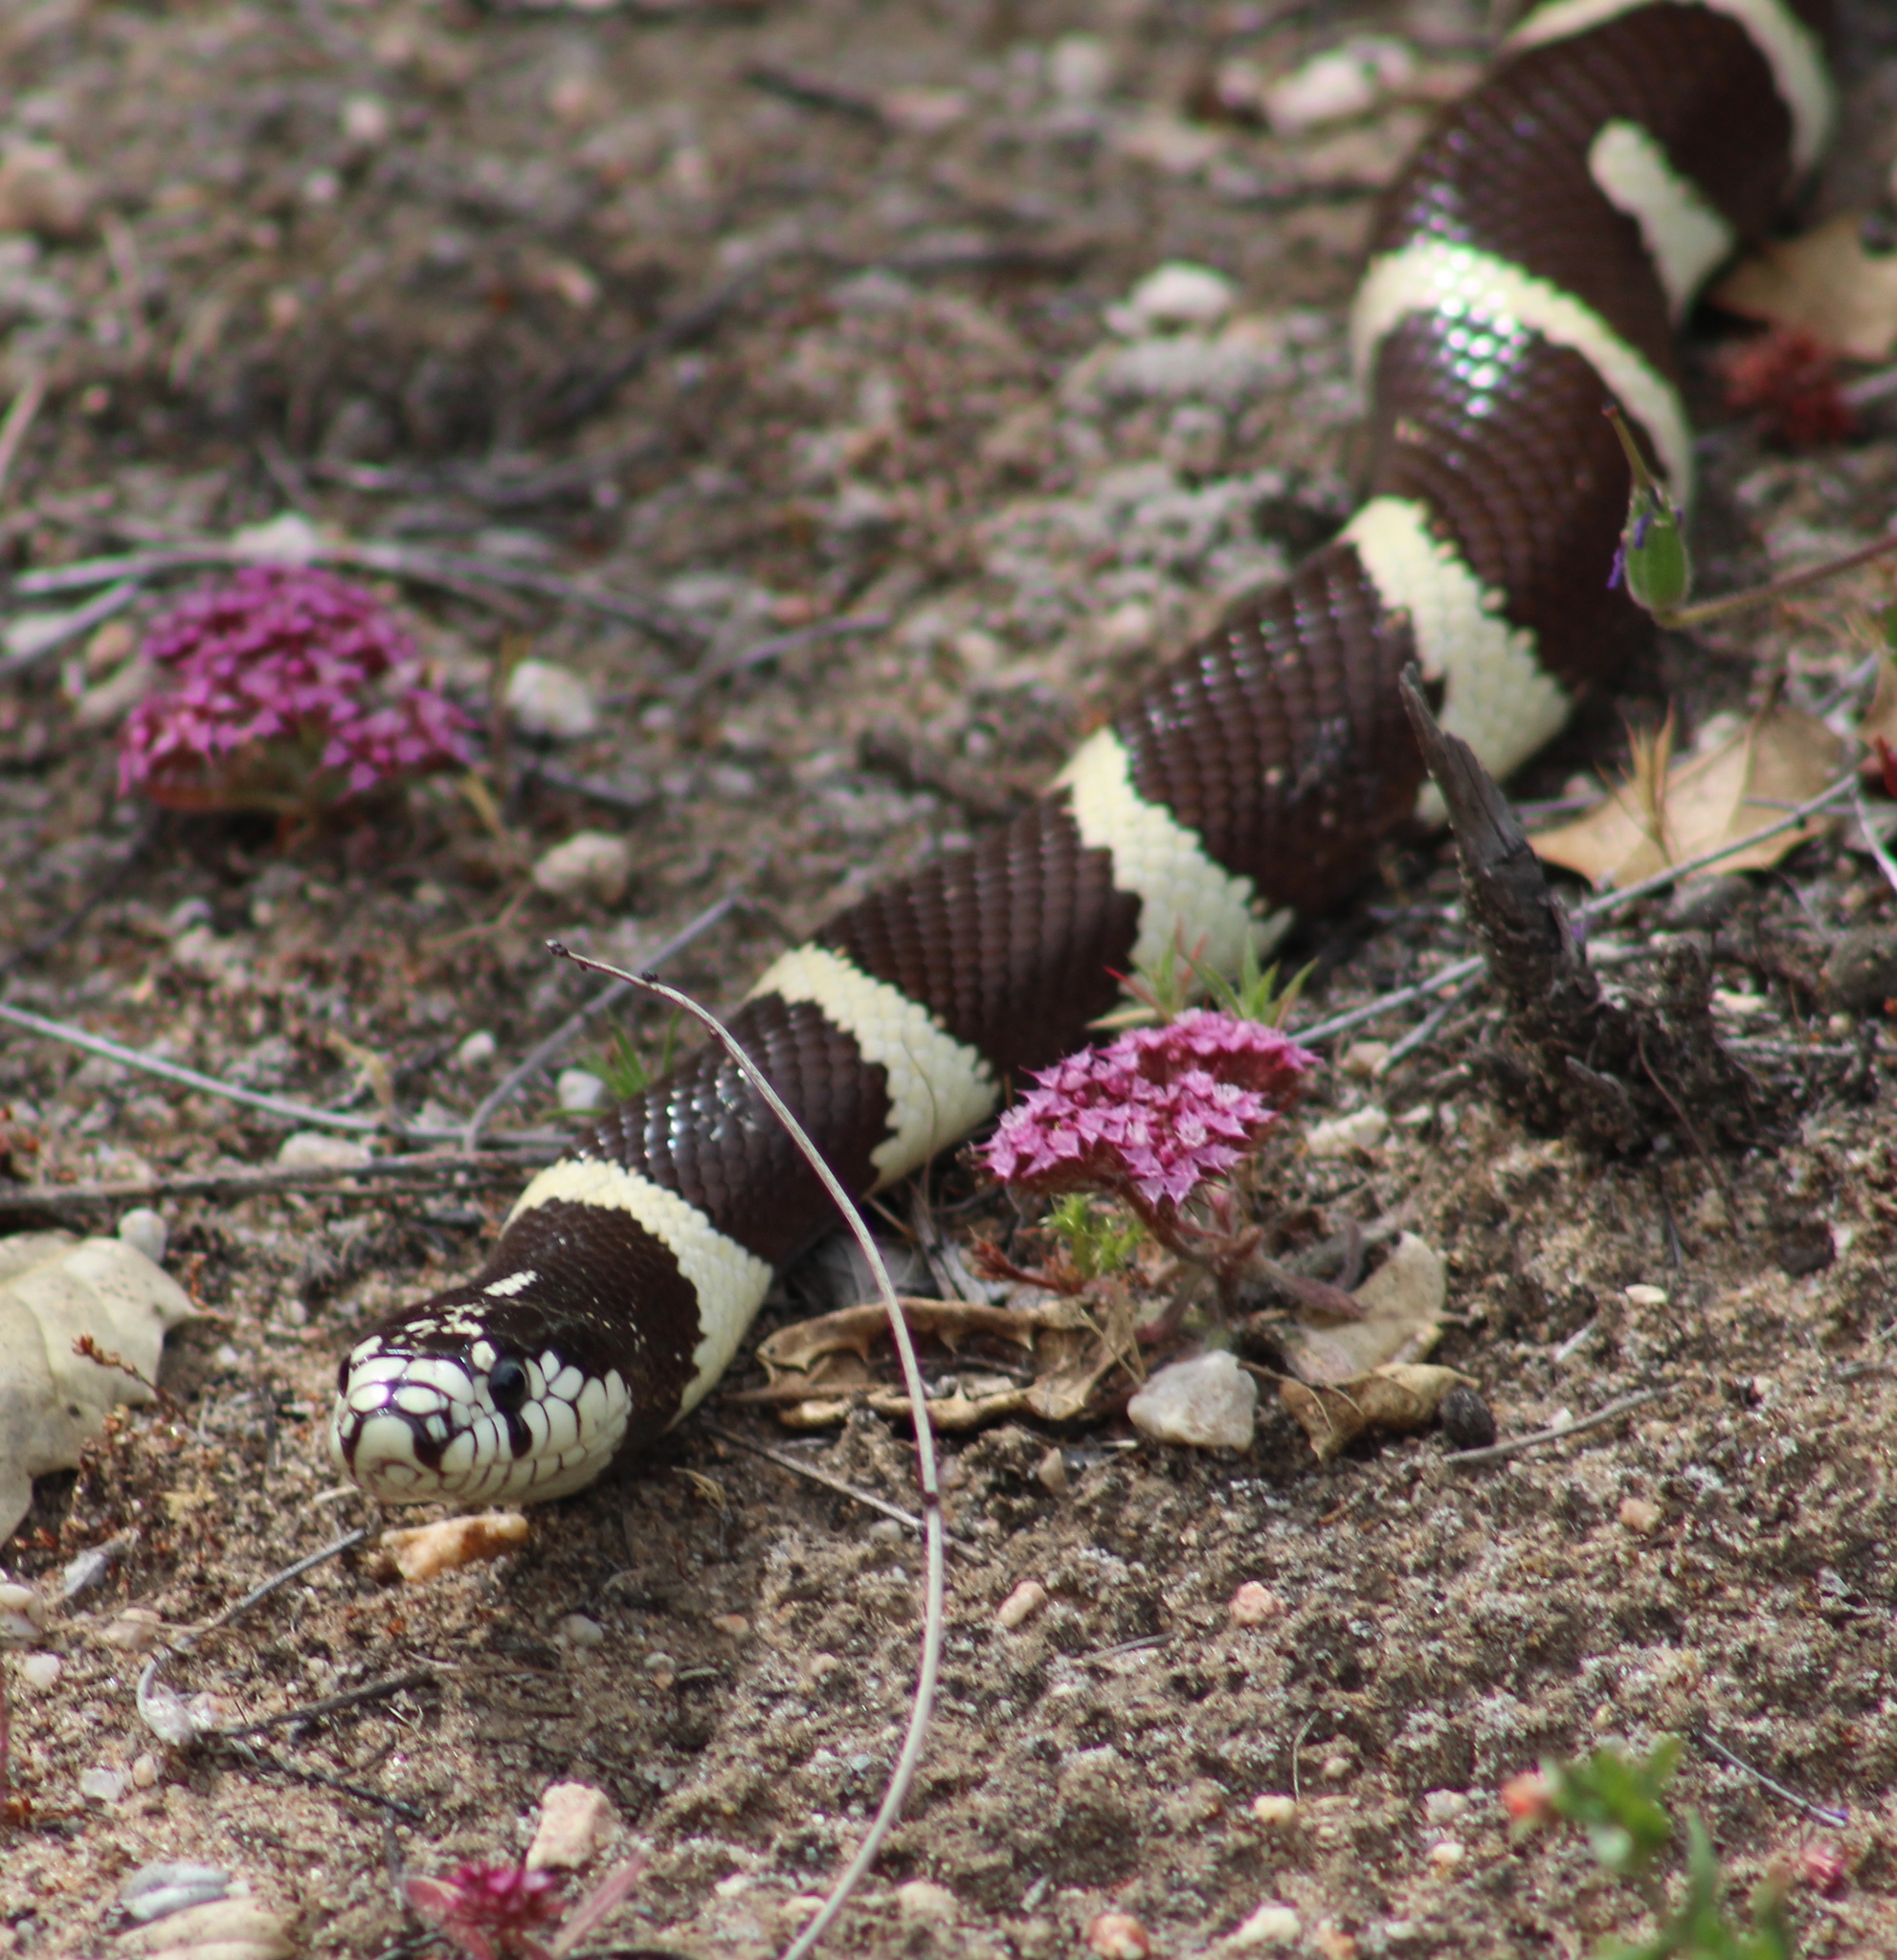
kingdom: Animalia
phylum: Chordata
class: Squamata
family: Colubridae
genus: Lampropeltis
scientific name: Lampropeltis californiae
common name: California kingsnake
